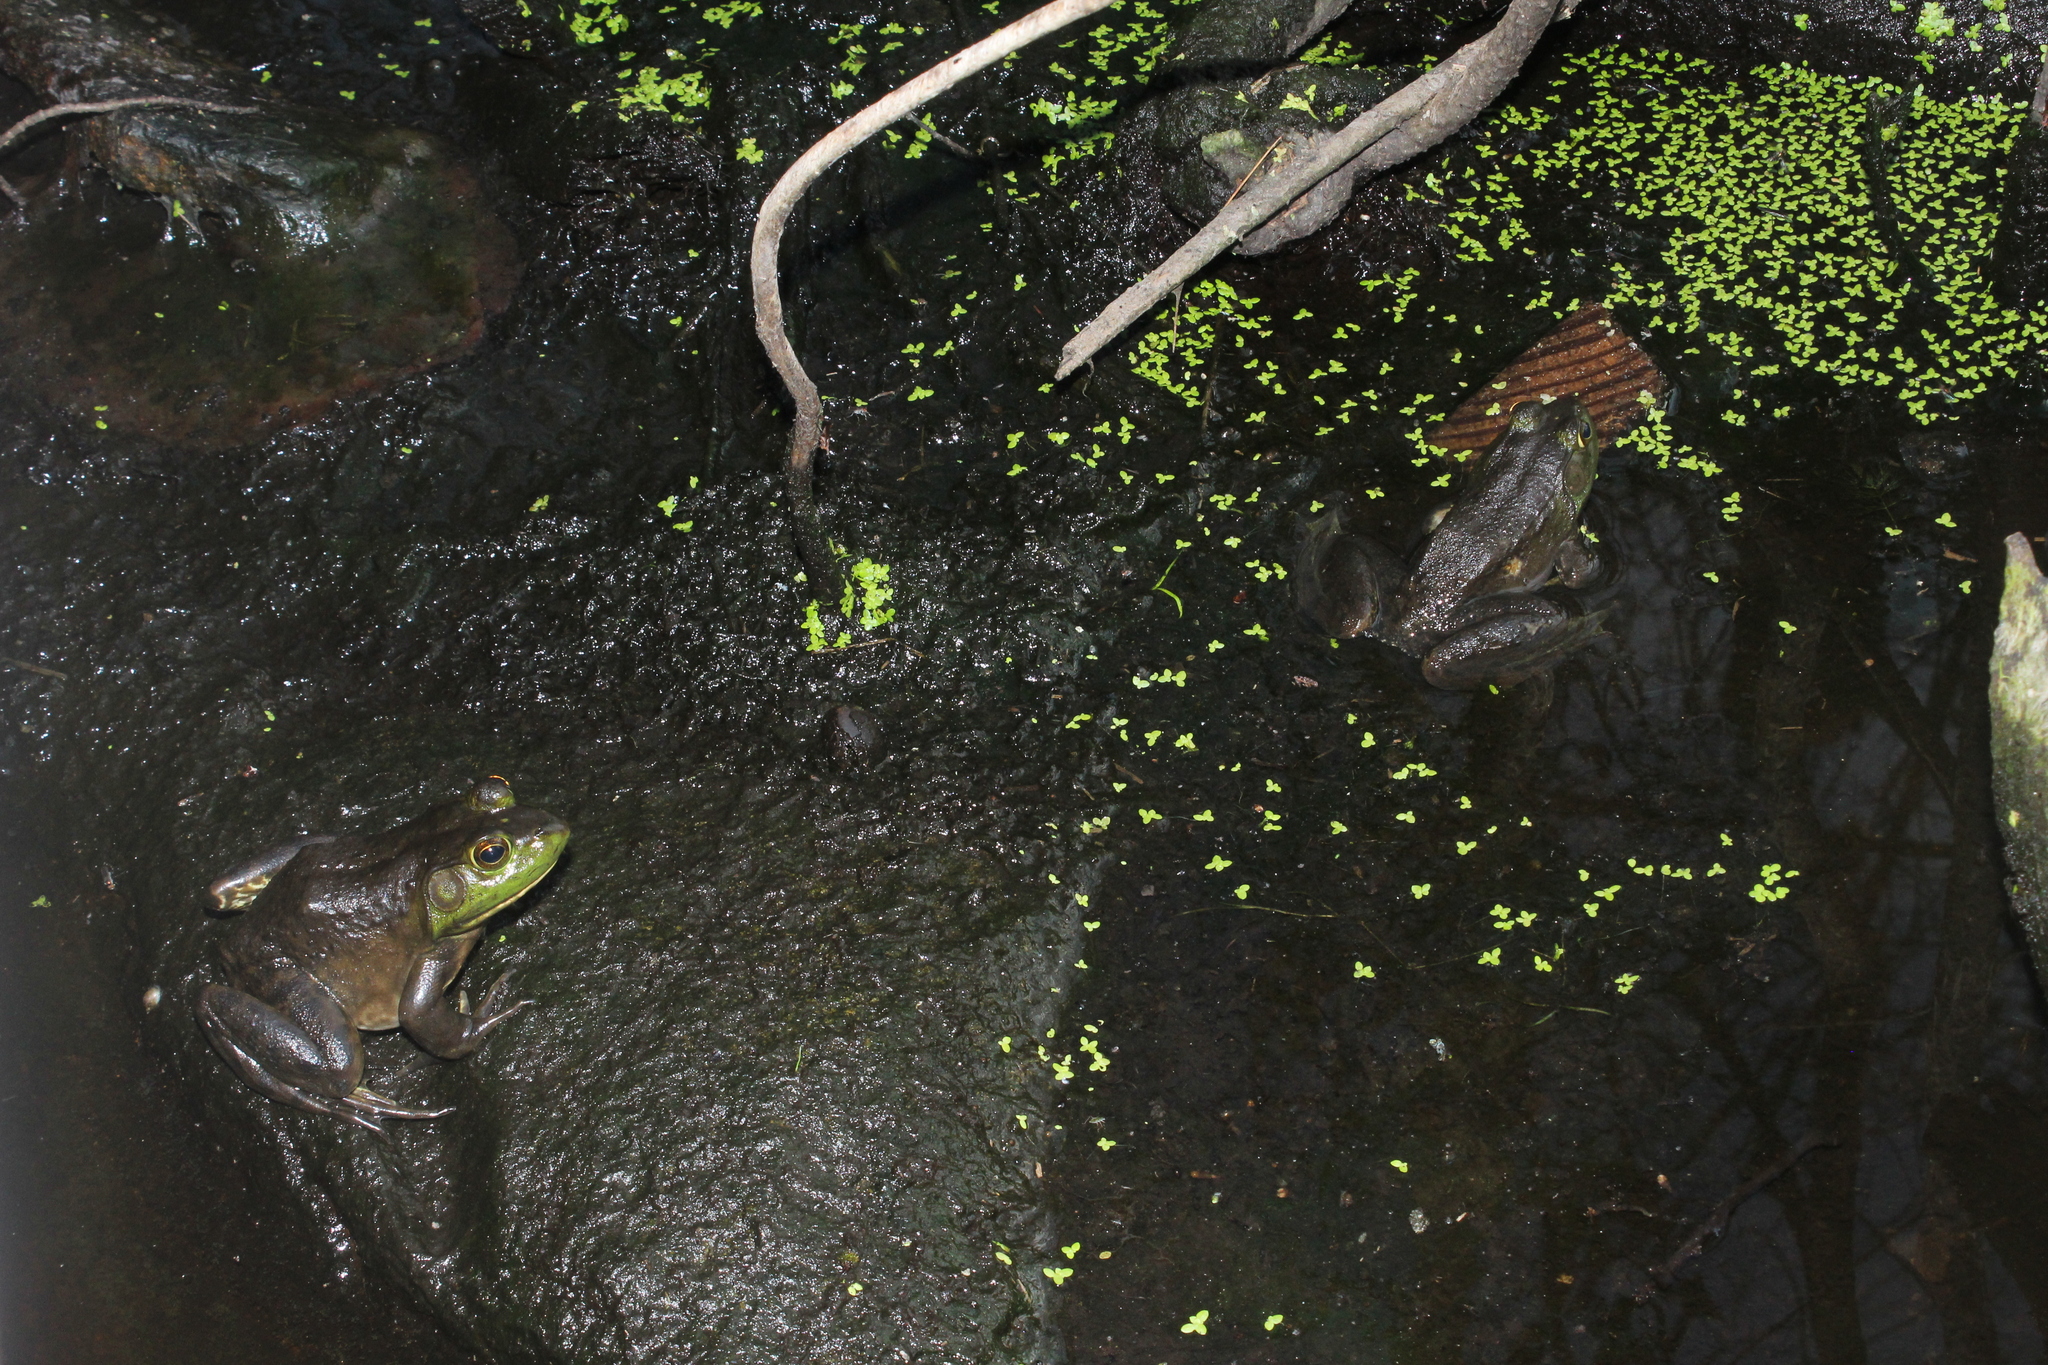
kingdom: Animalia
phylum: Chordata
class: Amphibia
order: Anura
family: Ranidae
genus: Lithobates
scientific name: Lithobates catesbeianus
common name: American bullfrog
